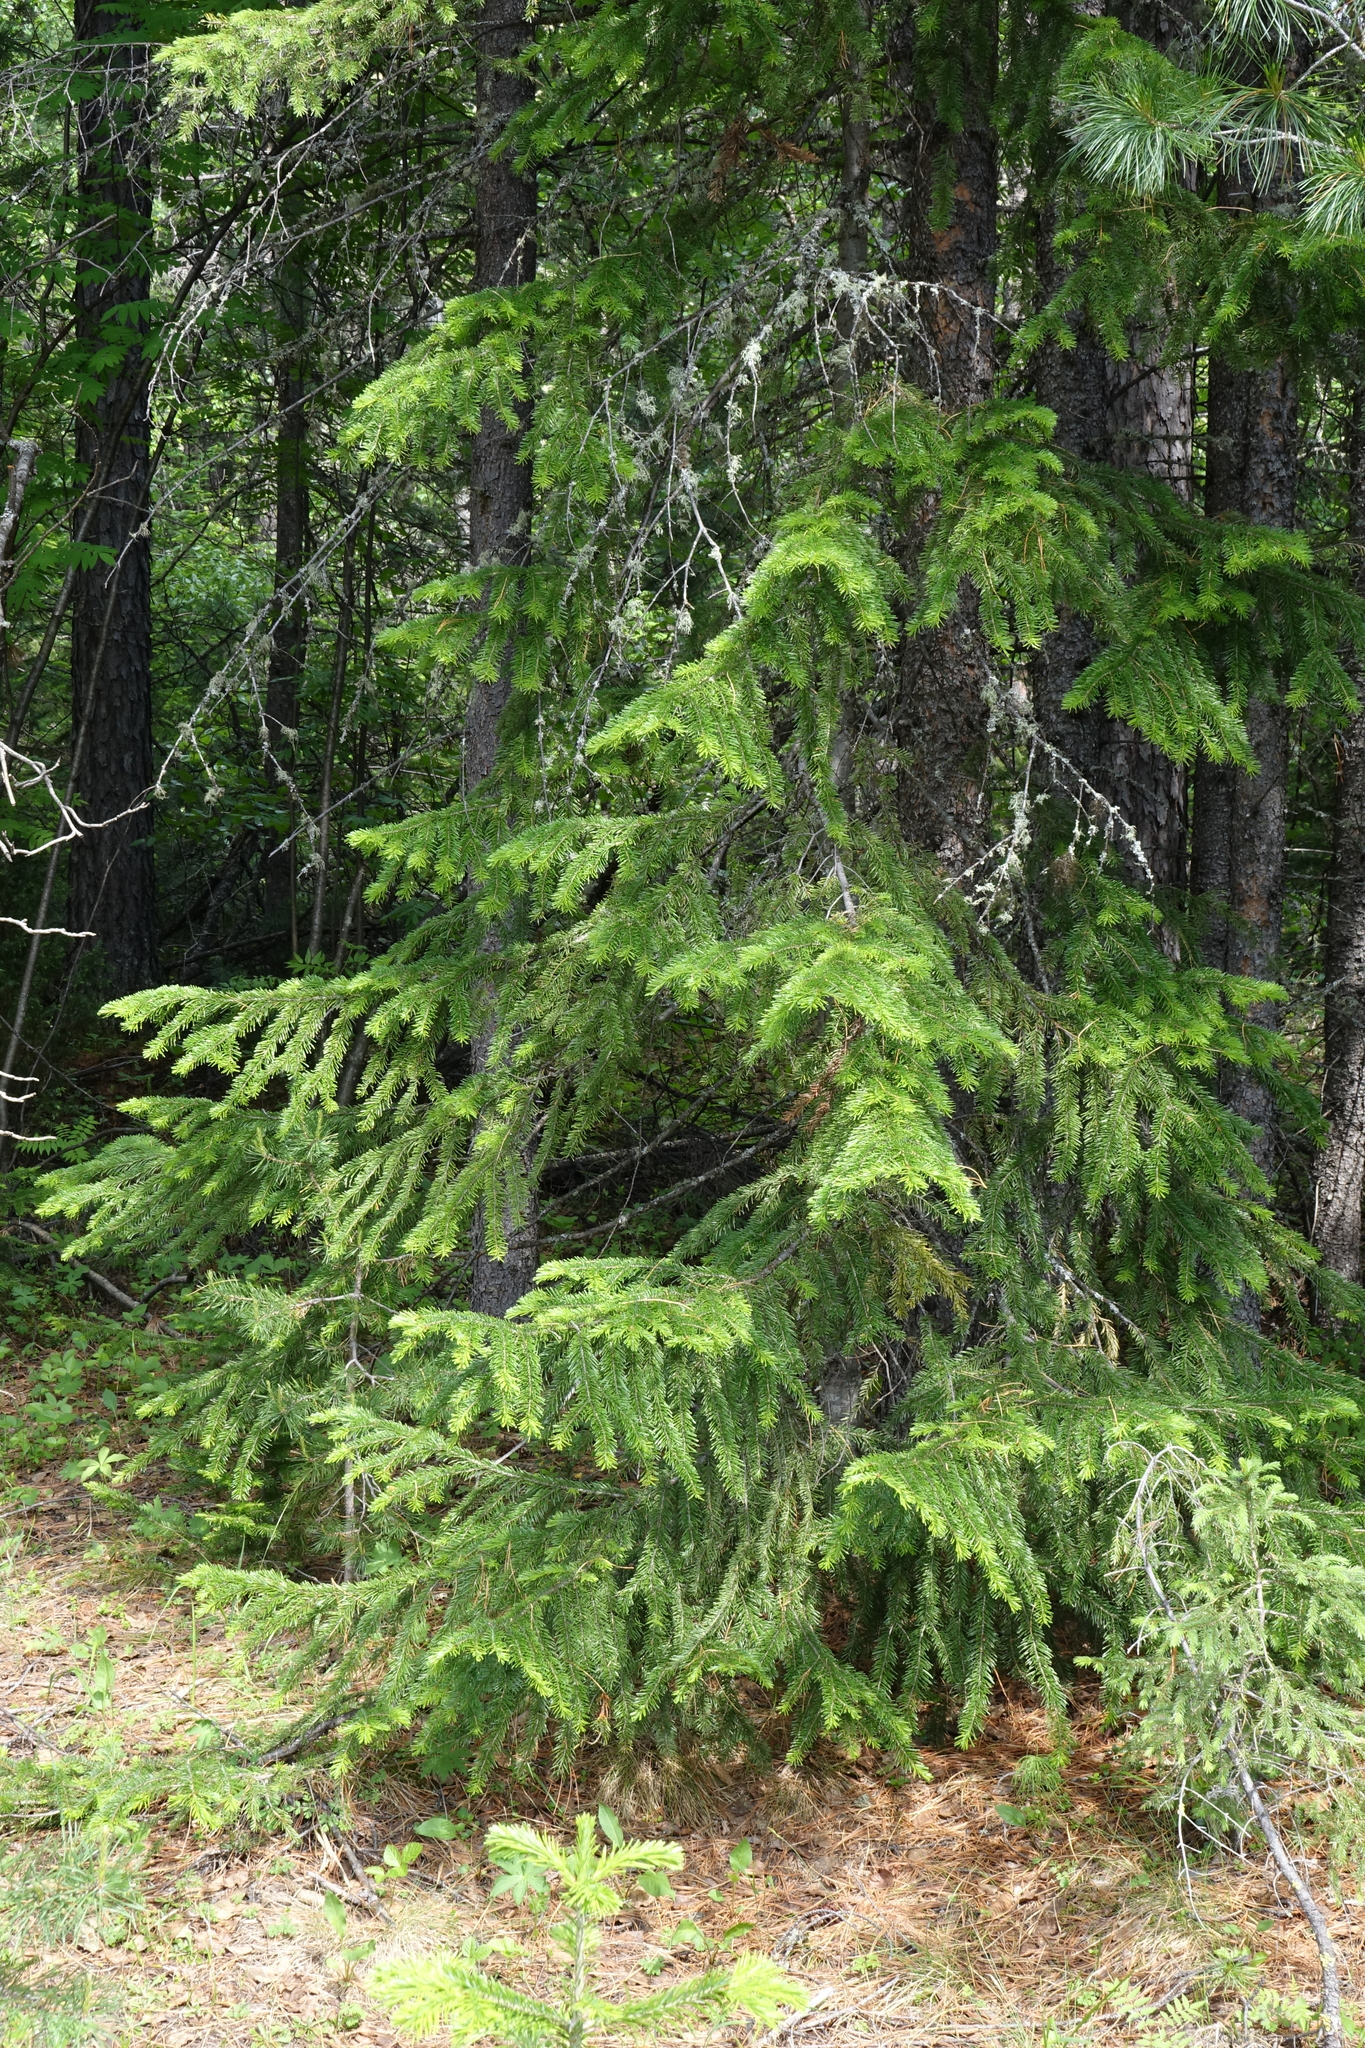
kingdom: Plantae
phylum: Tracheophyta
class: Pinopsida
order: Pinales
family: Pinaceae
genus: Abies
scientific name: Abies sibirica
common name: Siberian fir
